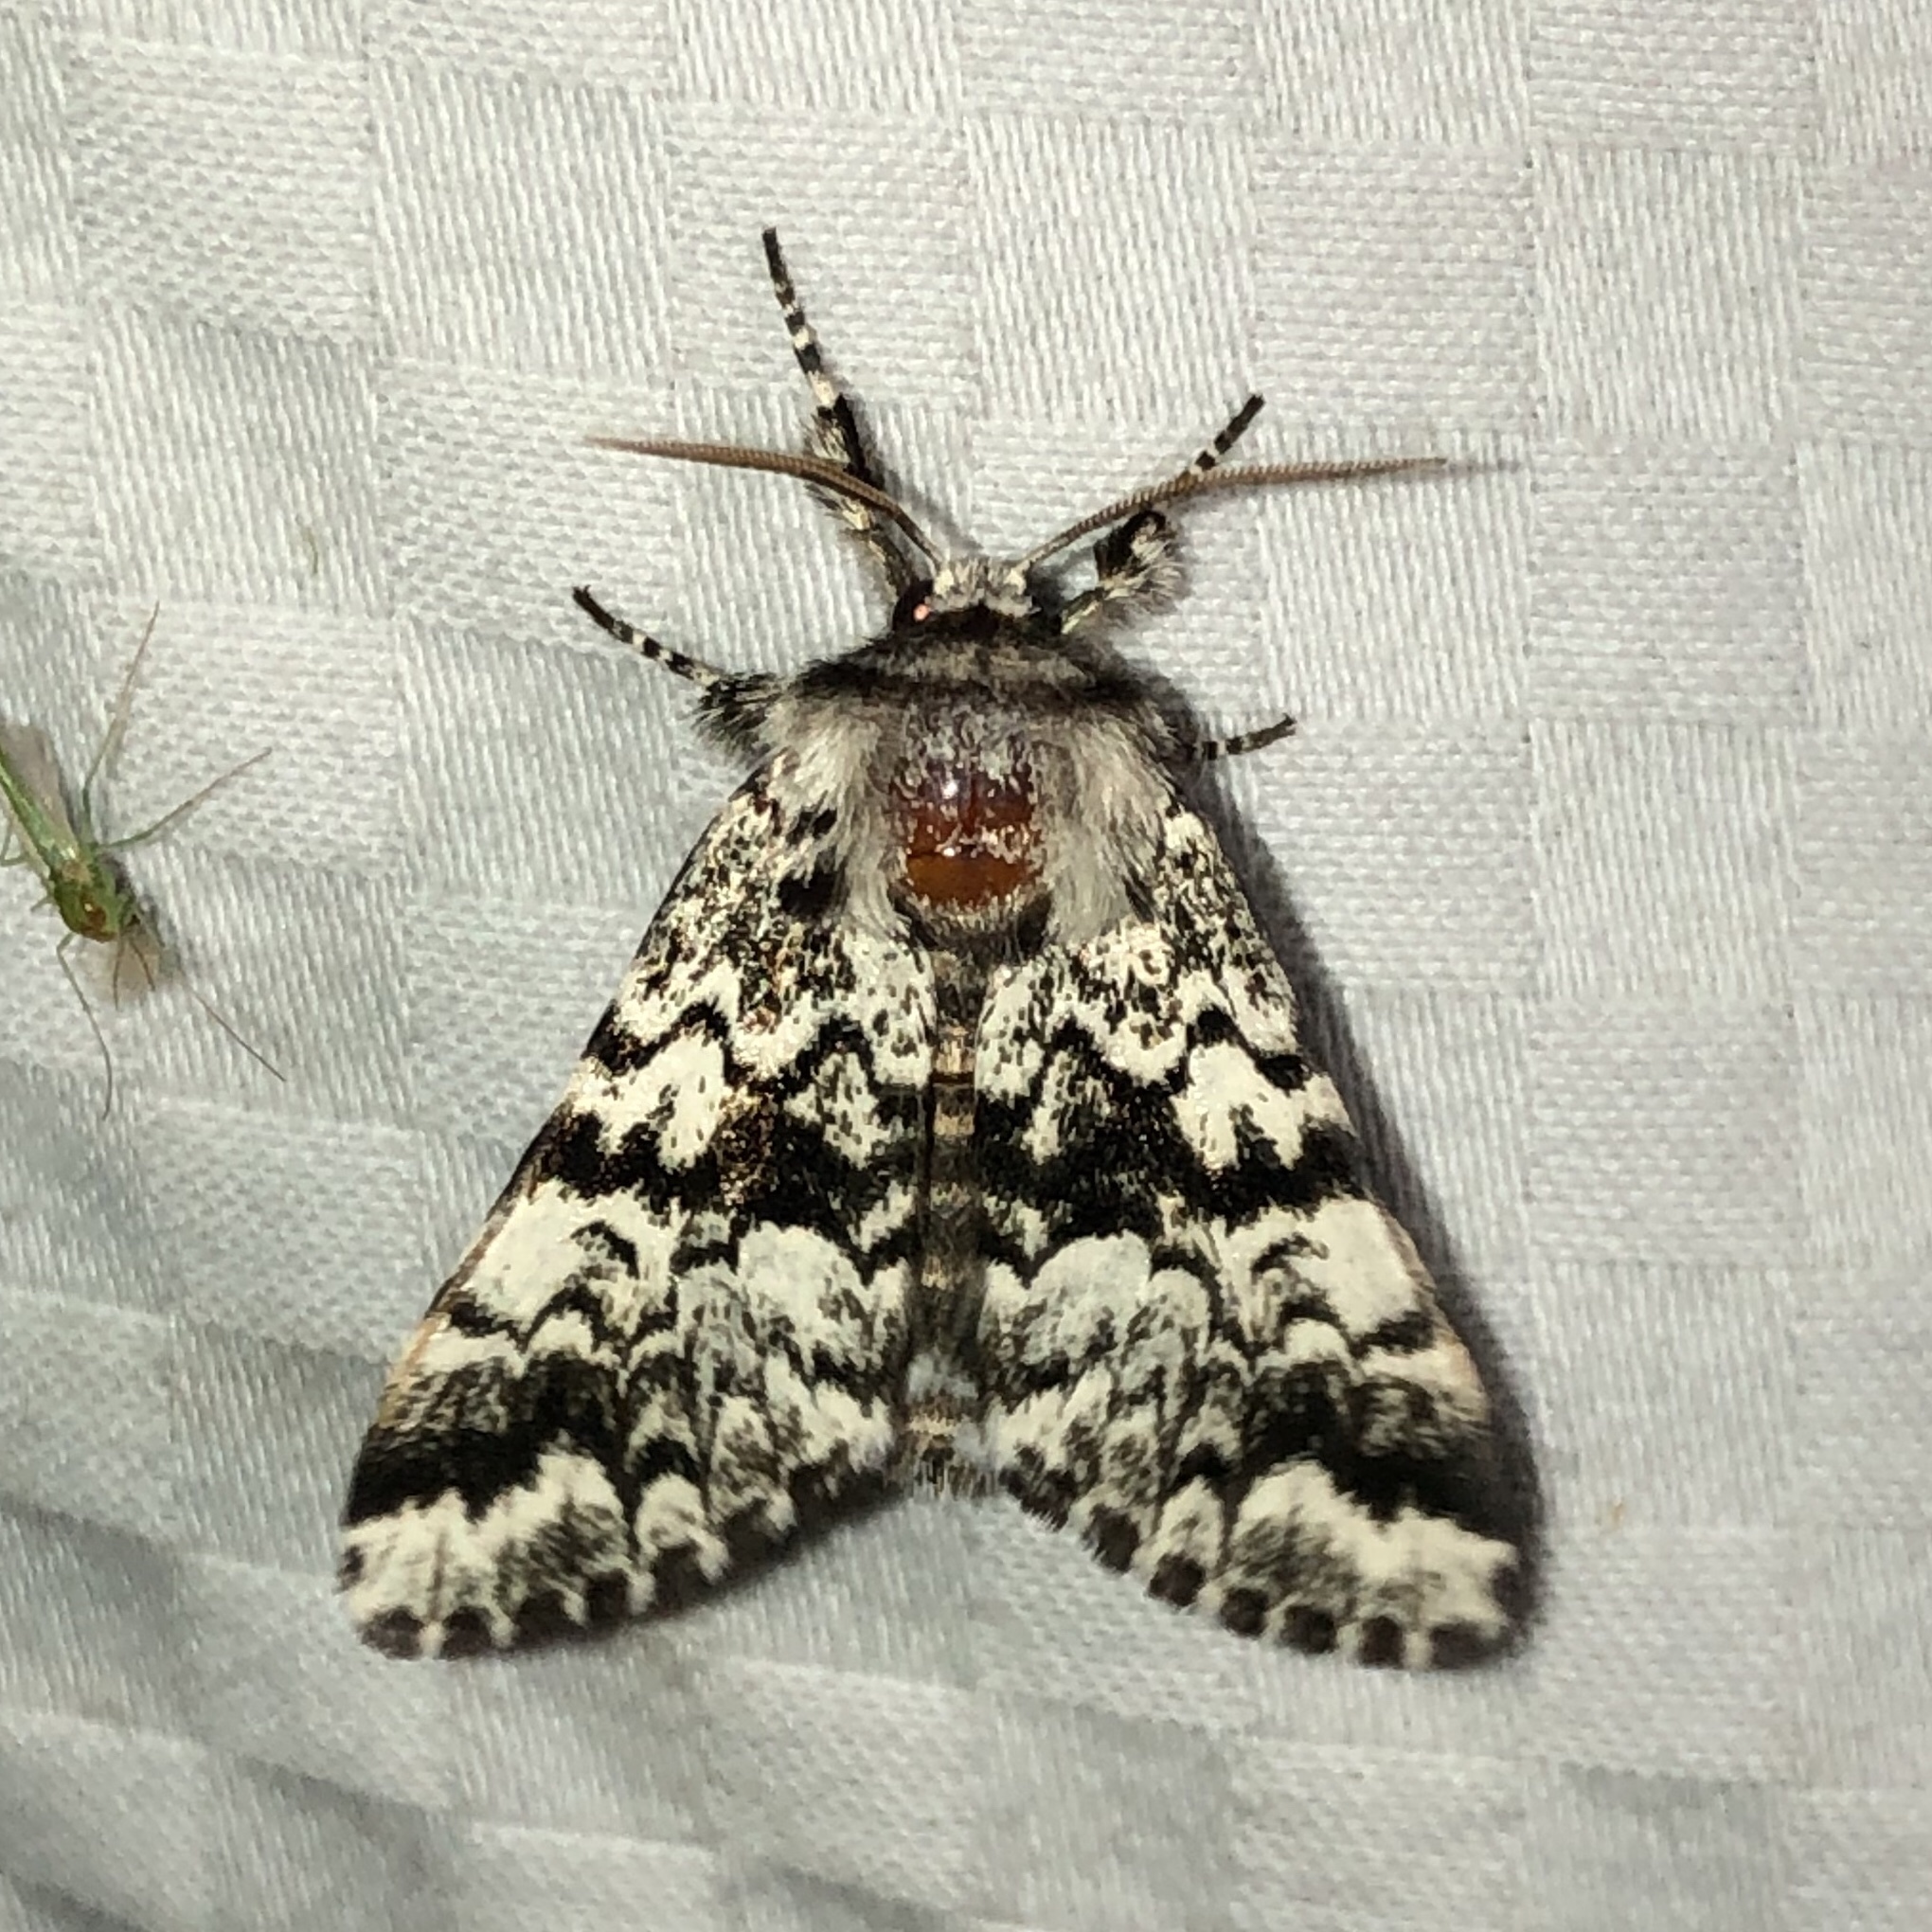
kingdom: Animalia
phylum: Arthropoda
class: Insecta
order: Lepidoptera
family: Noctuidae
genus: Panthea
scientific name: Panthea acronyctoides
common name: Black zigzag moth
